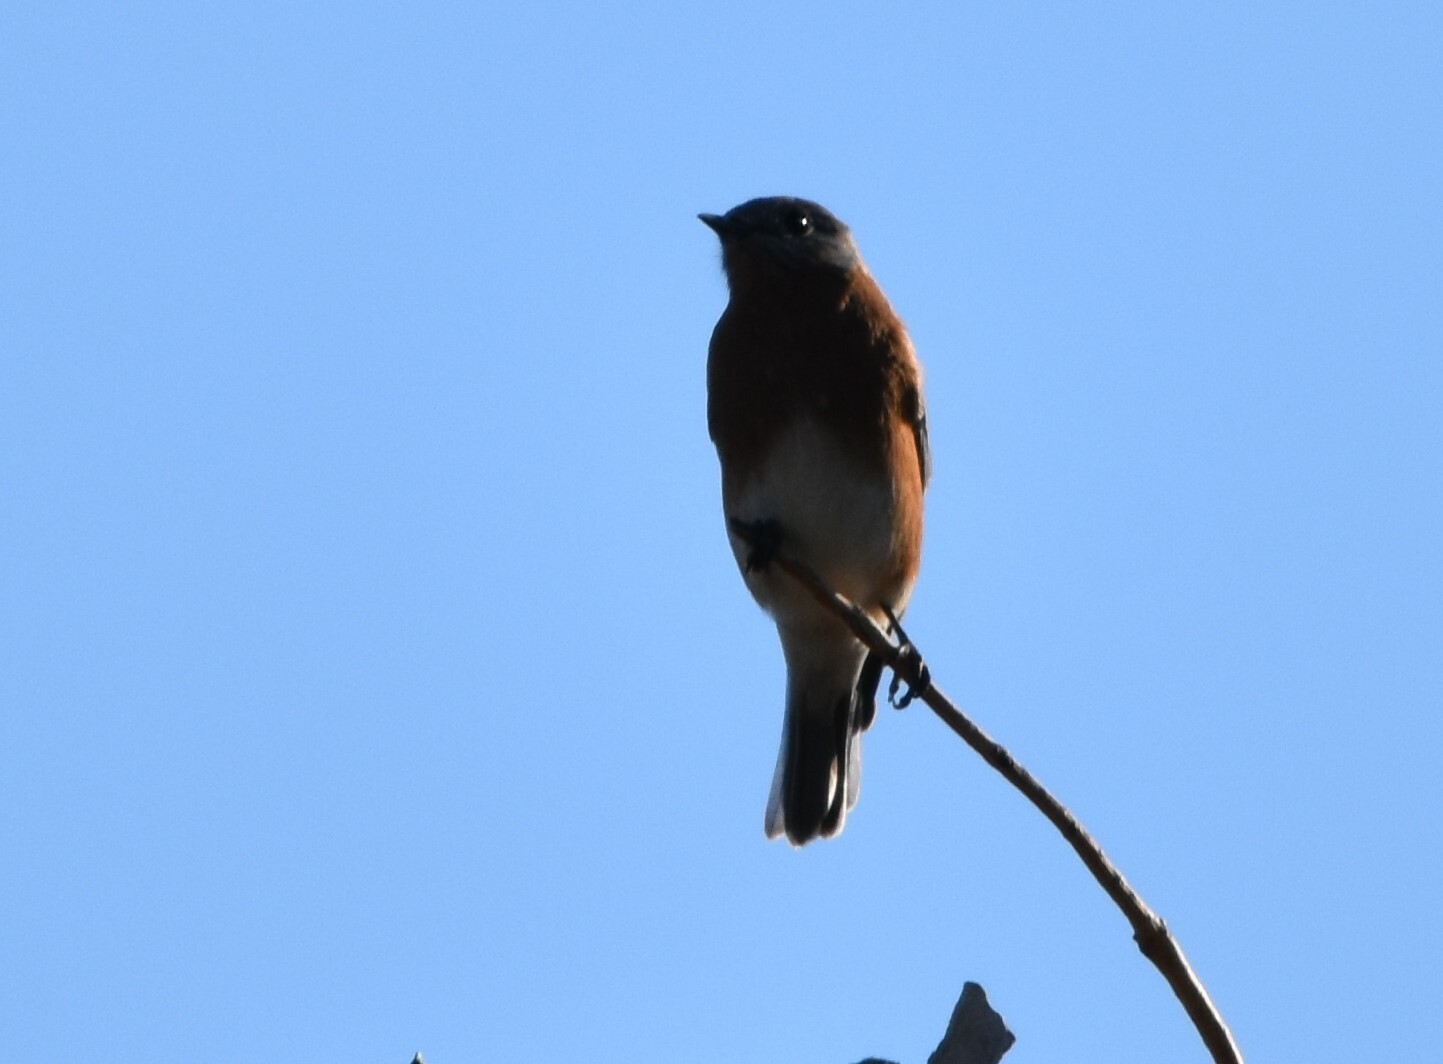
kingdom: Animalia
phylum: Chordata
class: Aves
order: Passeriformes
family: Turdidae
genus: Sialia
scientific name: Sialia sialis
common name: Eastern bluebird
